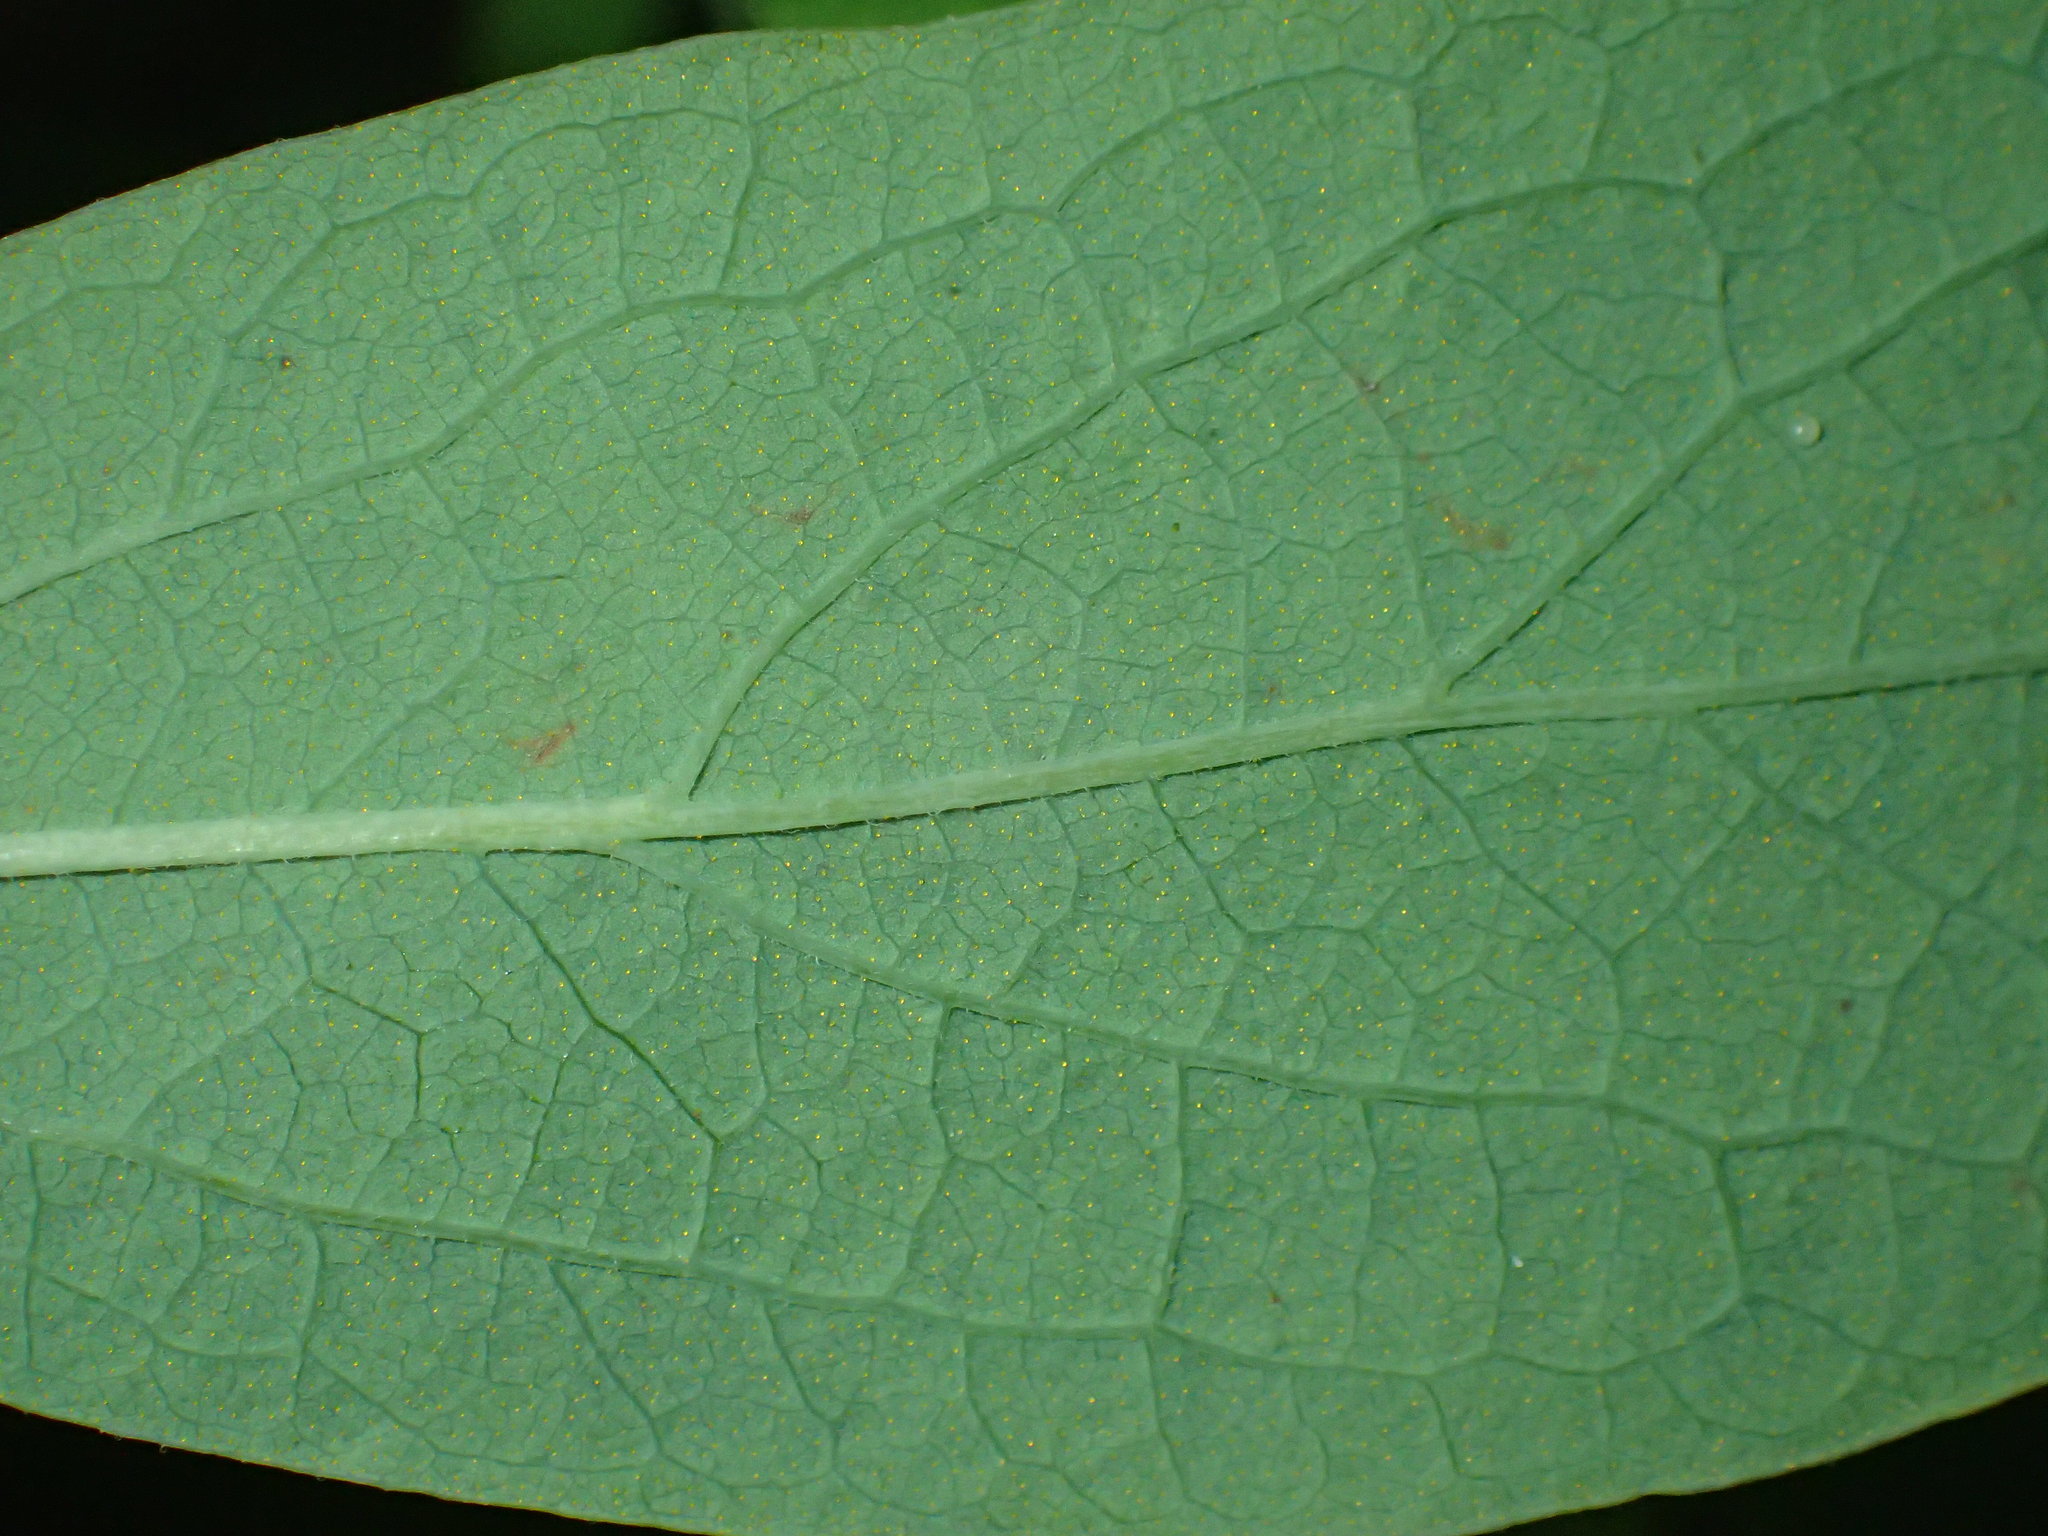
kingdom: Plantae
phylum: Tracheophyta
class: Magnoliopsida
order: Ericales
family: Ericaceae
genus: Gaylussacia
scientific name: Gaylussacia frondosa
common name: Dangleberry
